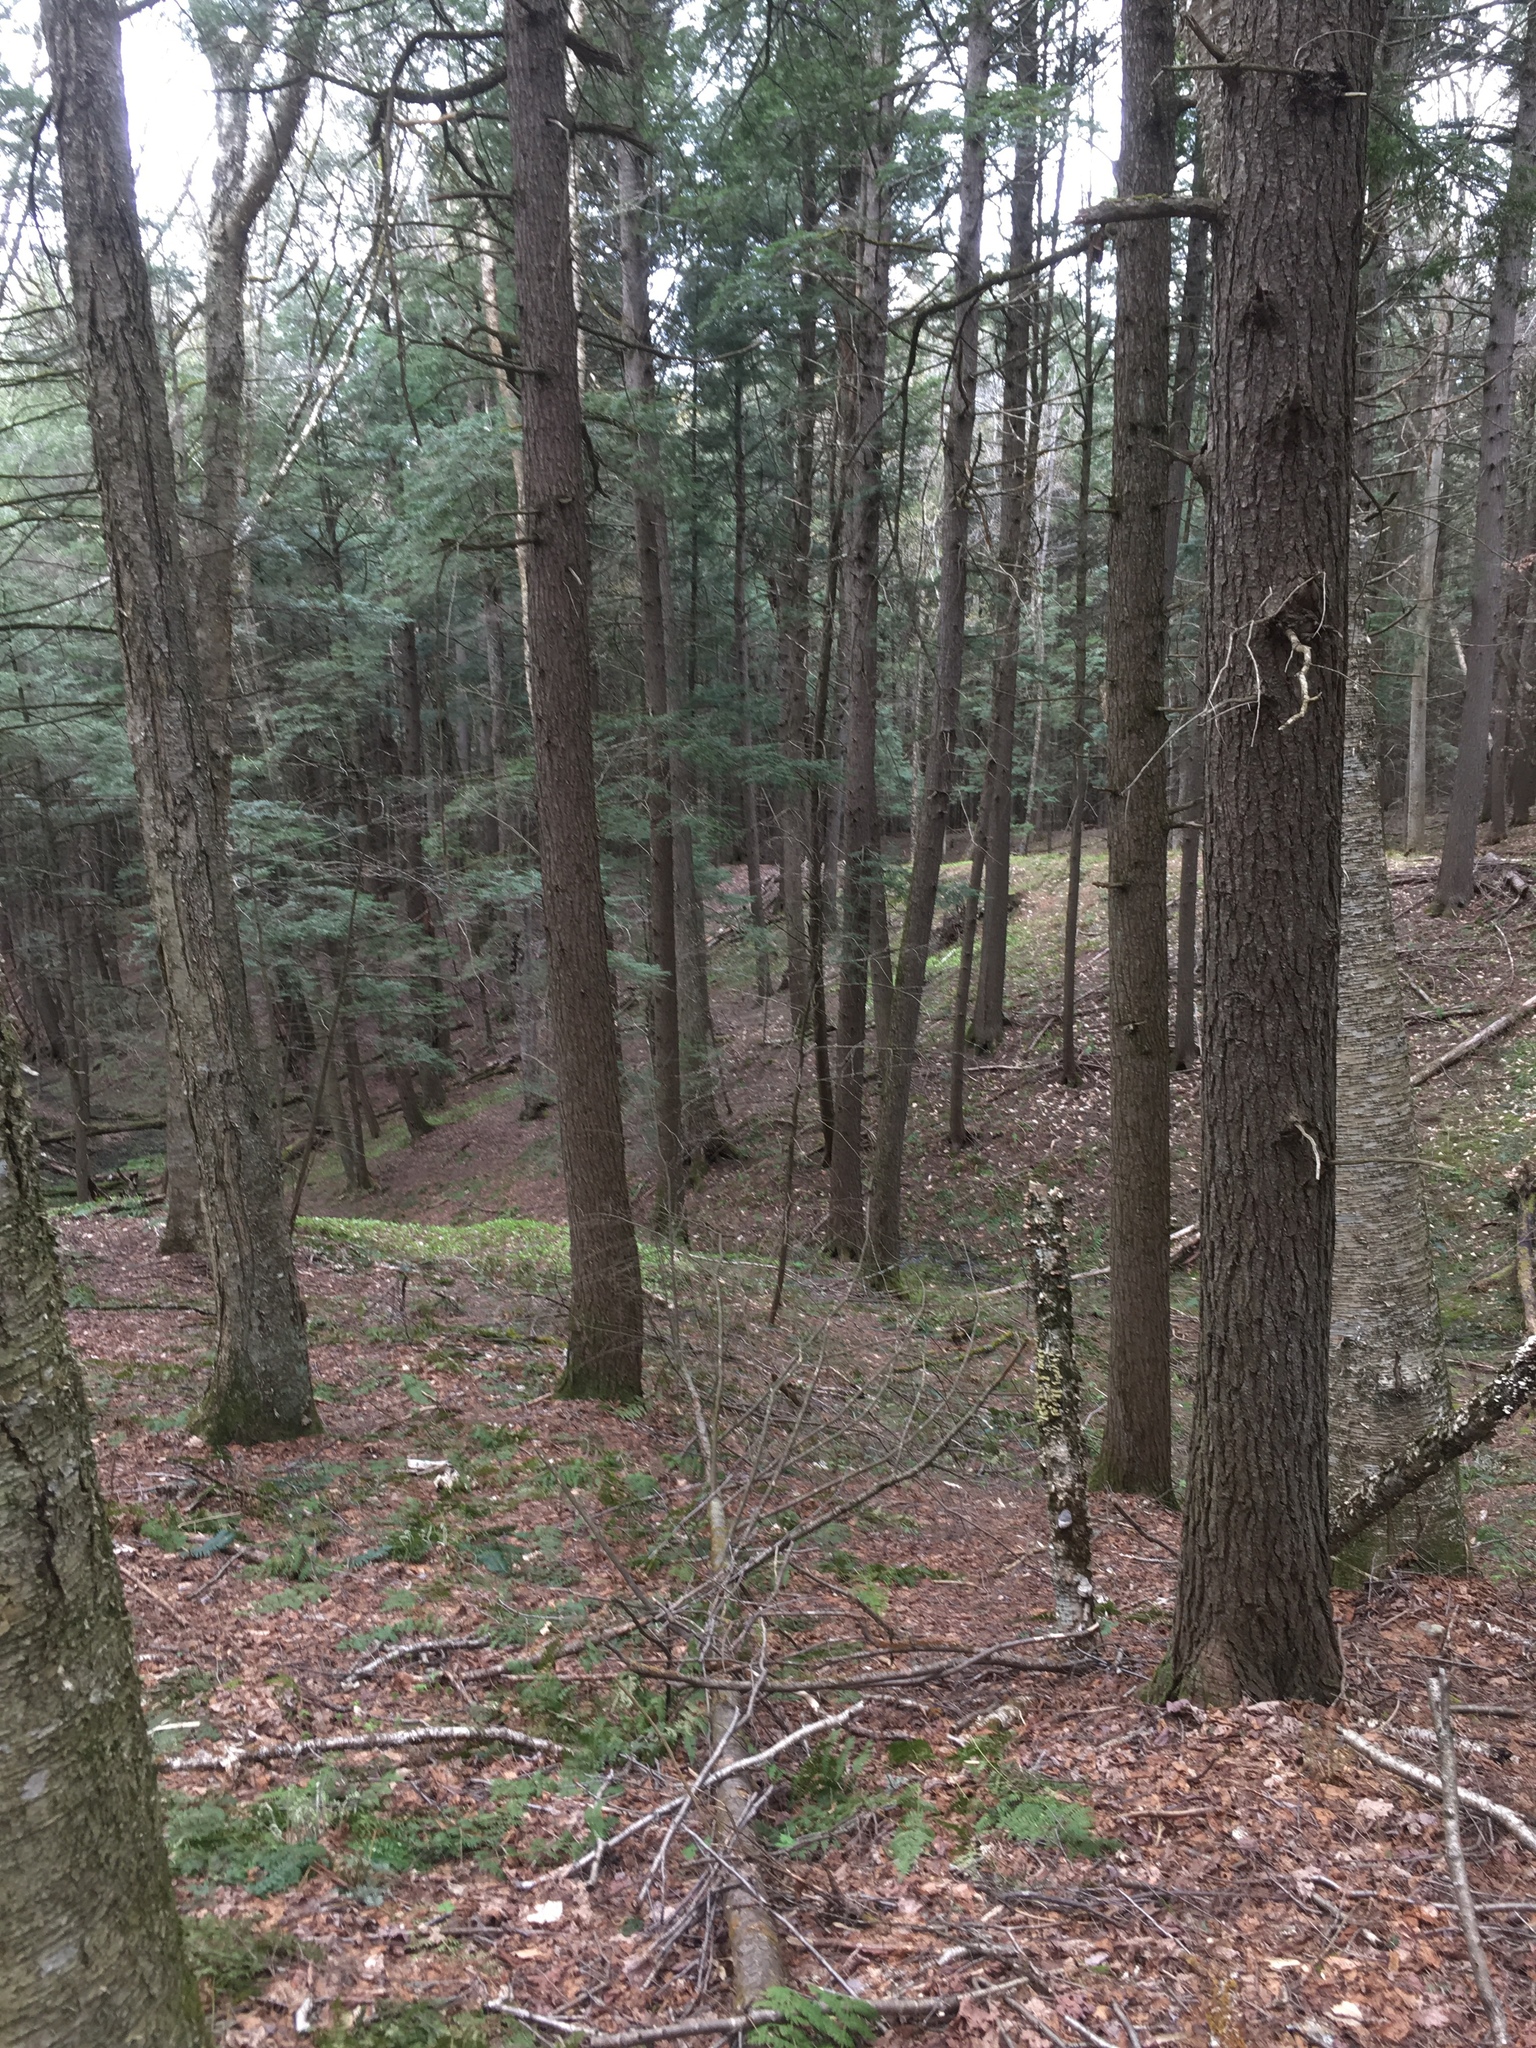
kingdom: Plantae
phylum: Tracheophyta
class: Pinopsida
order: Pinales
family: Pinaceae
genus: Tsuga
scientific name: Tsuga canadensis
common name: Eastern hemlock
